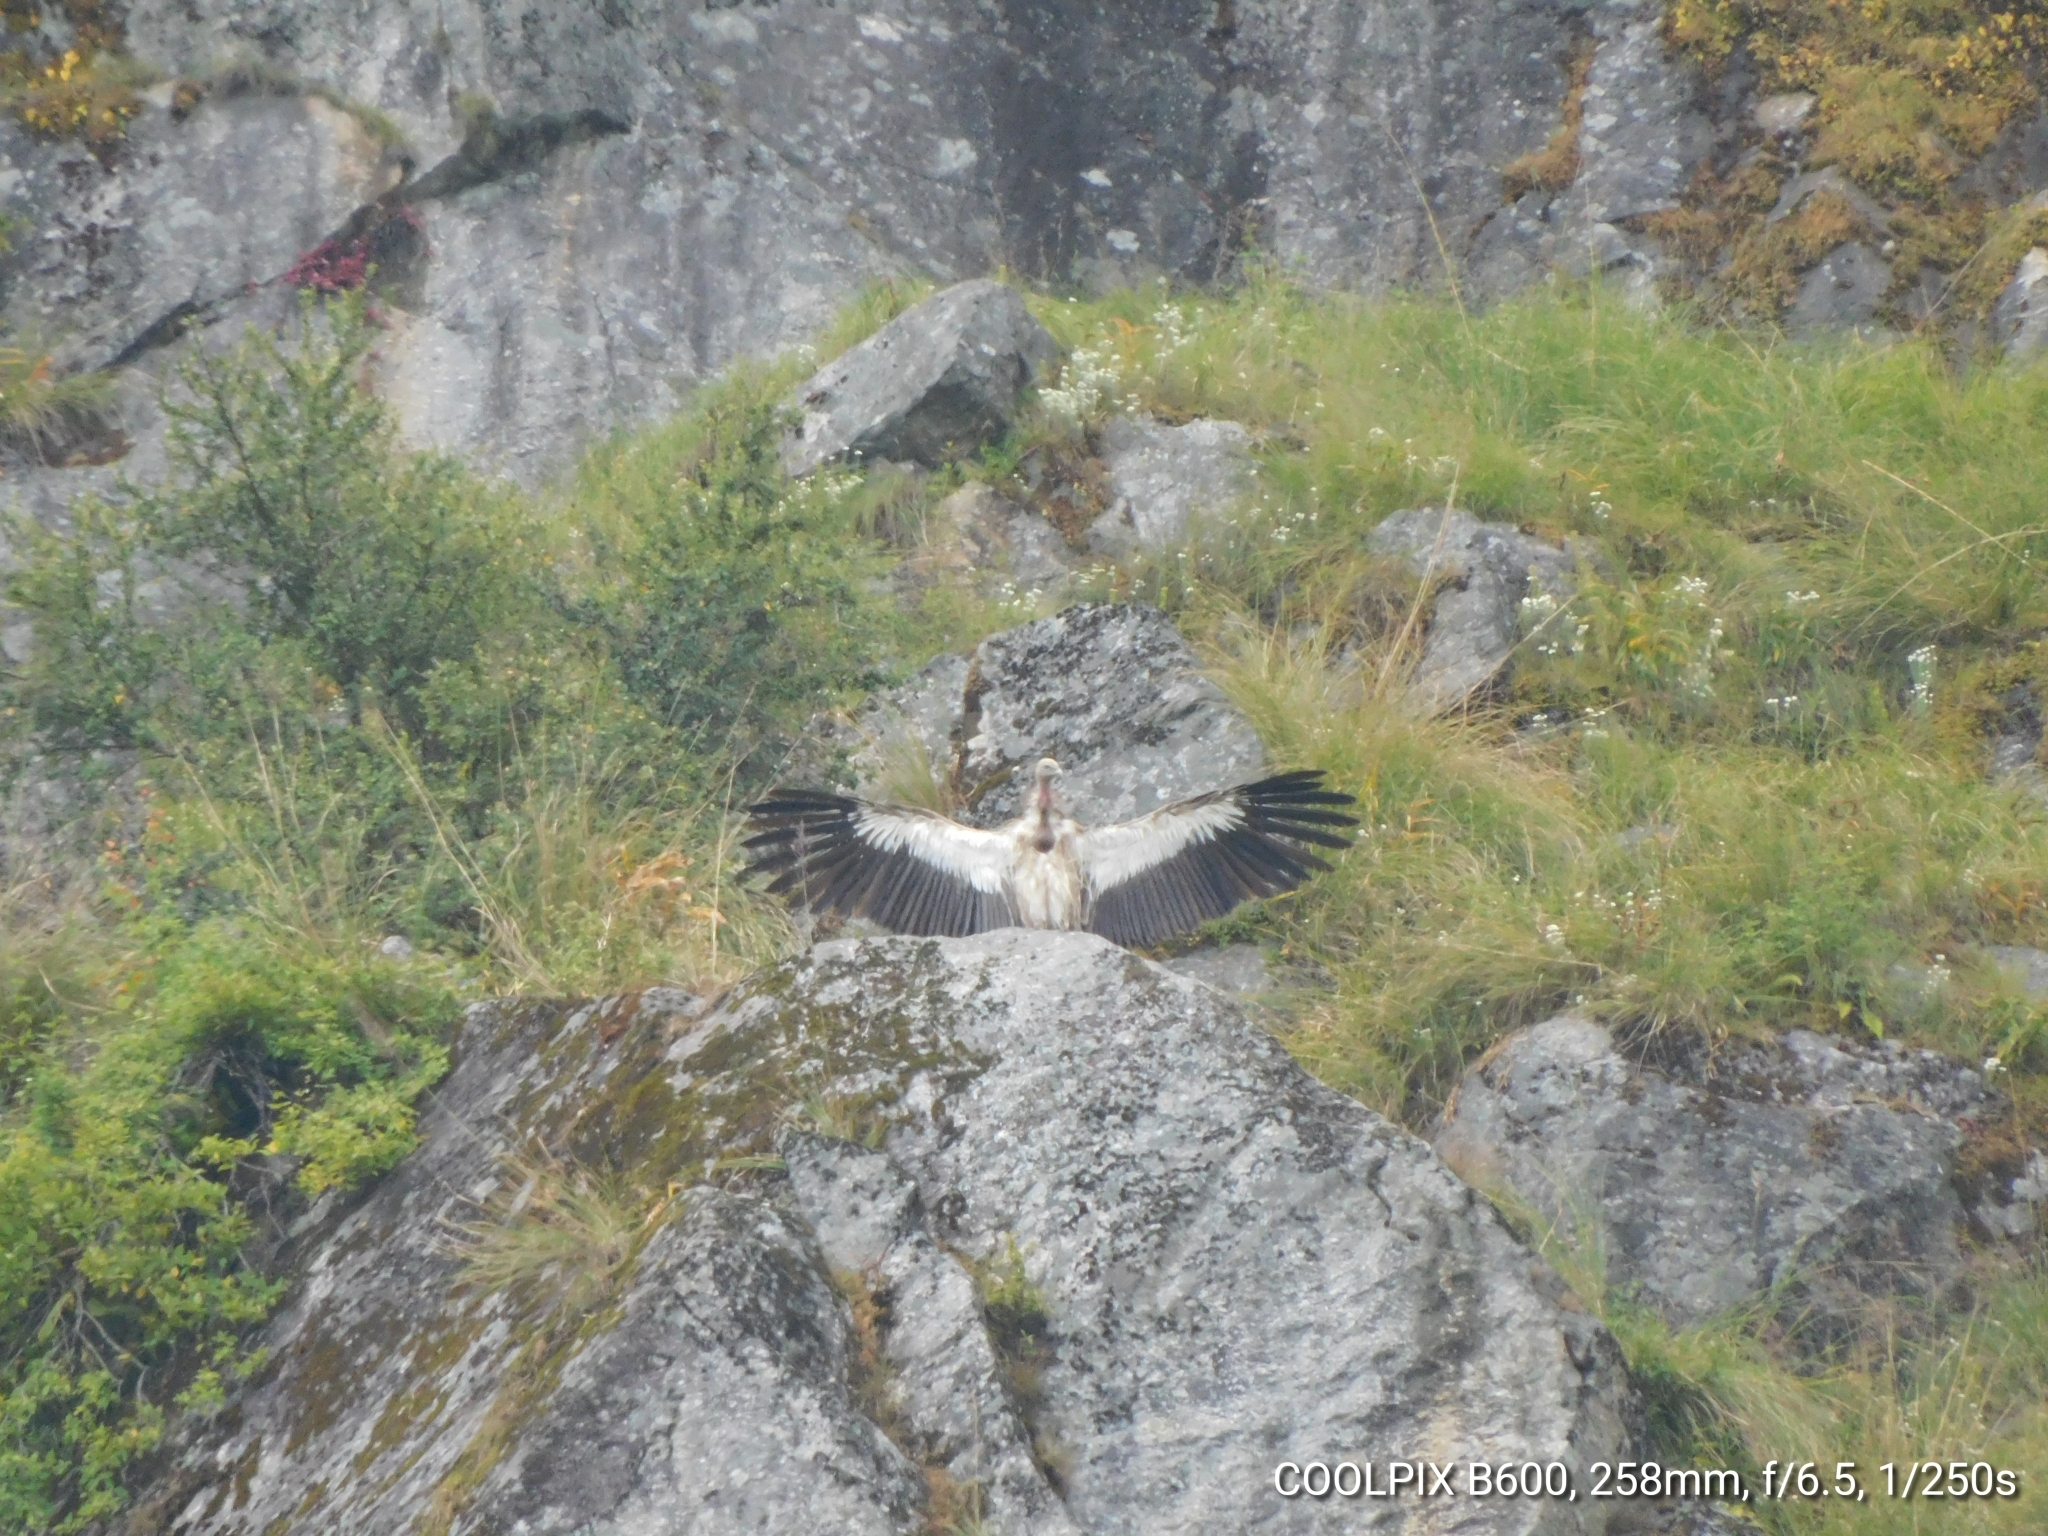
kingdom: Animalia
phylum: Chordata
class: Aves
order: Accipitriformes
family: Accipitridae
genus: Gyps
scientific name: Gyps himalayensis
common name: Himalayan griffon
